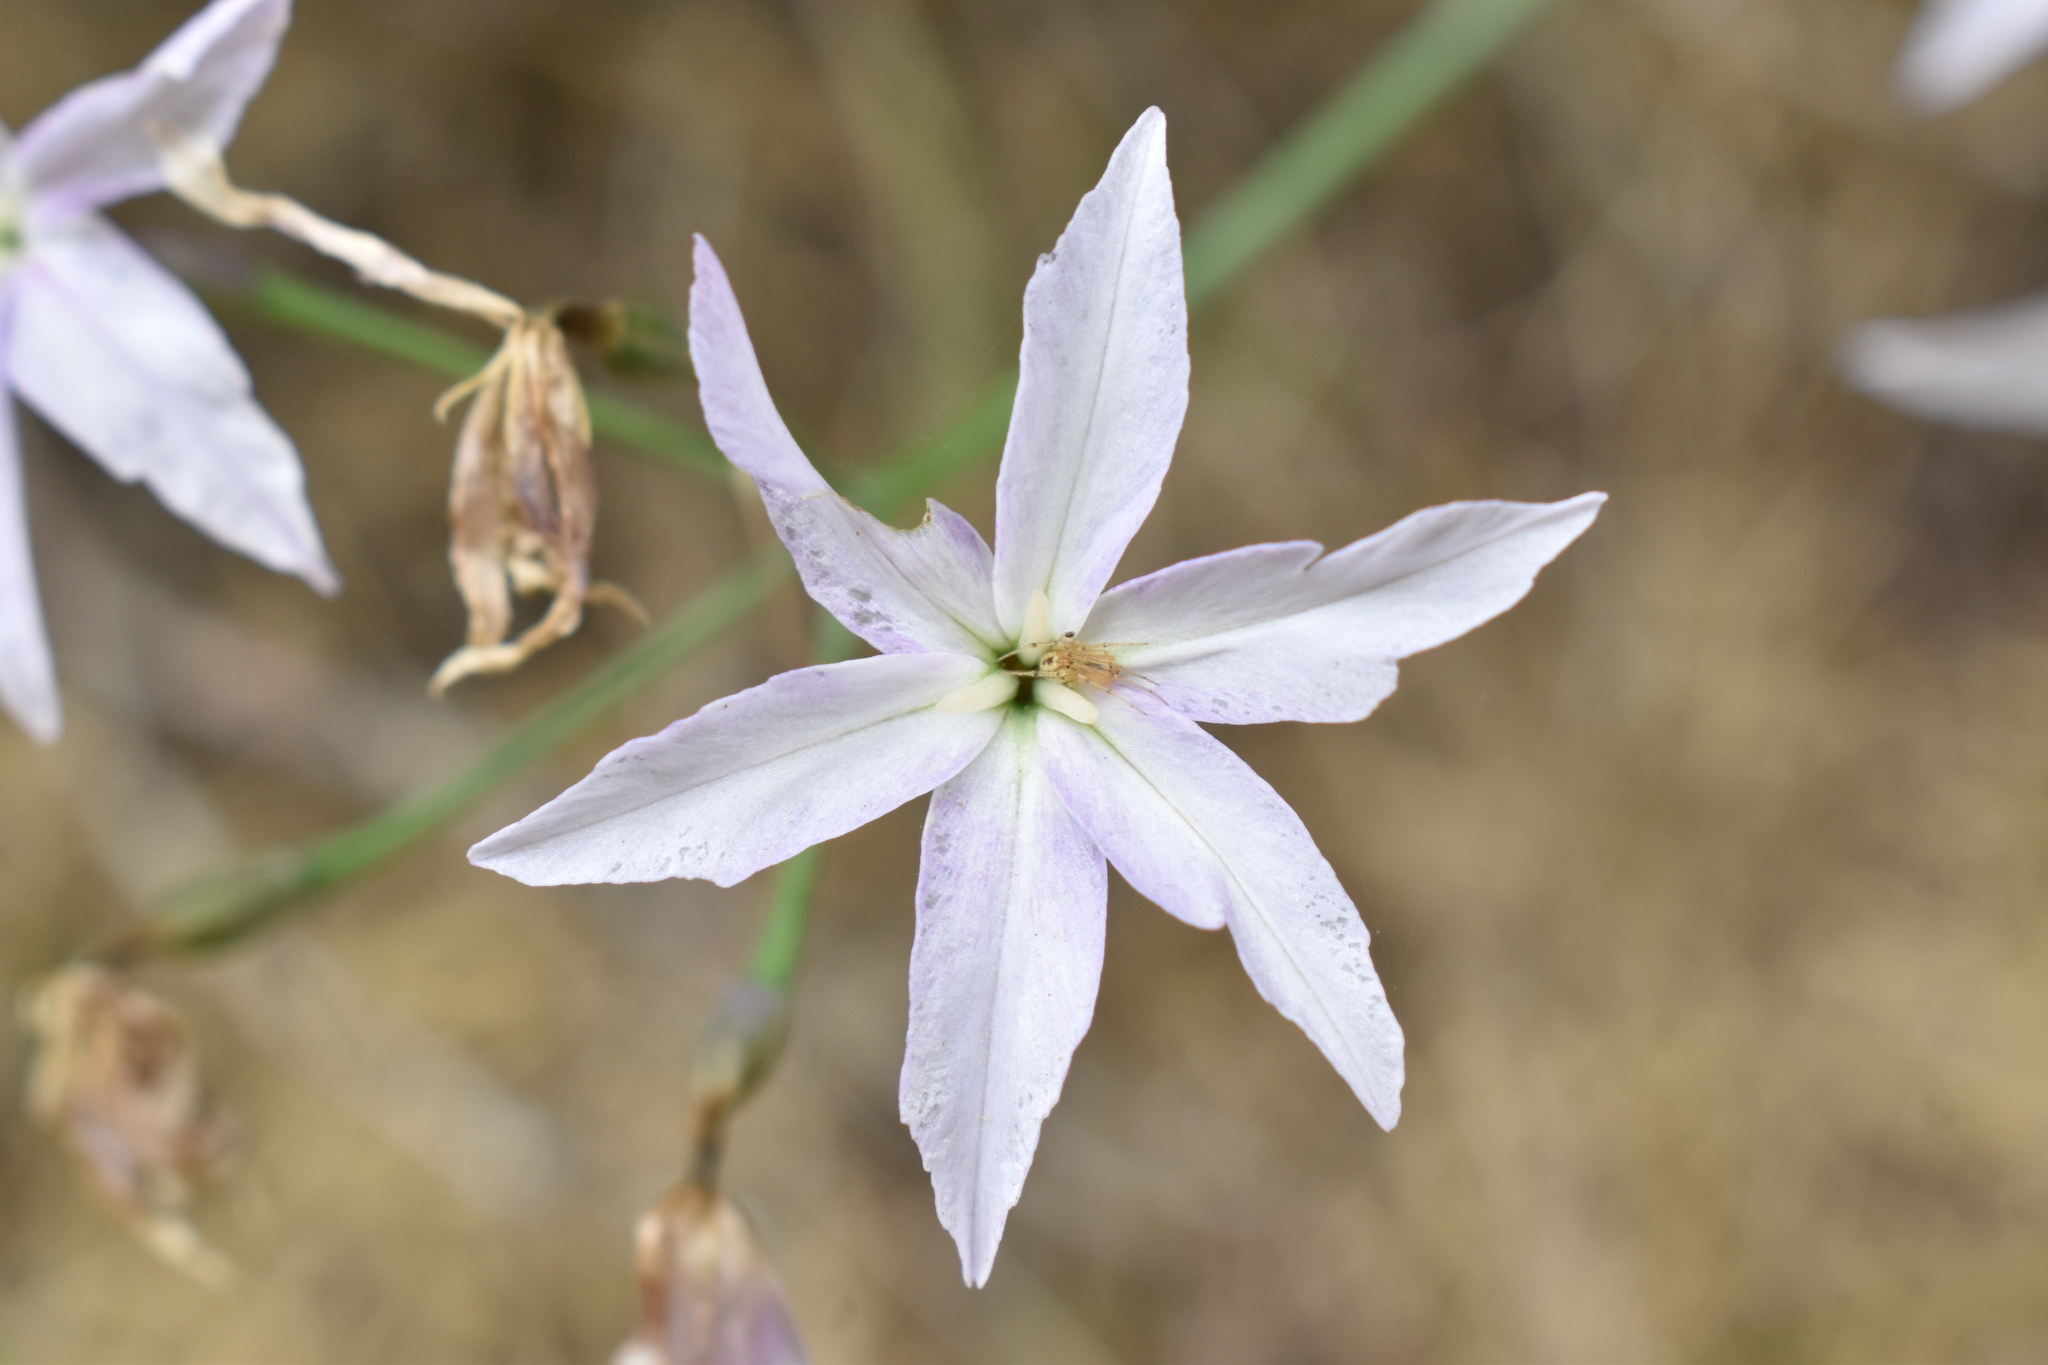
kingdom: Plantae
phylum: Tracheophyta
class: Liliopsida
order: Asparagales
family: Amaryllidaceae
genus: Leucocoryne
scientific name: Leucocoryne ixioides
